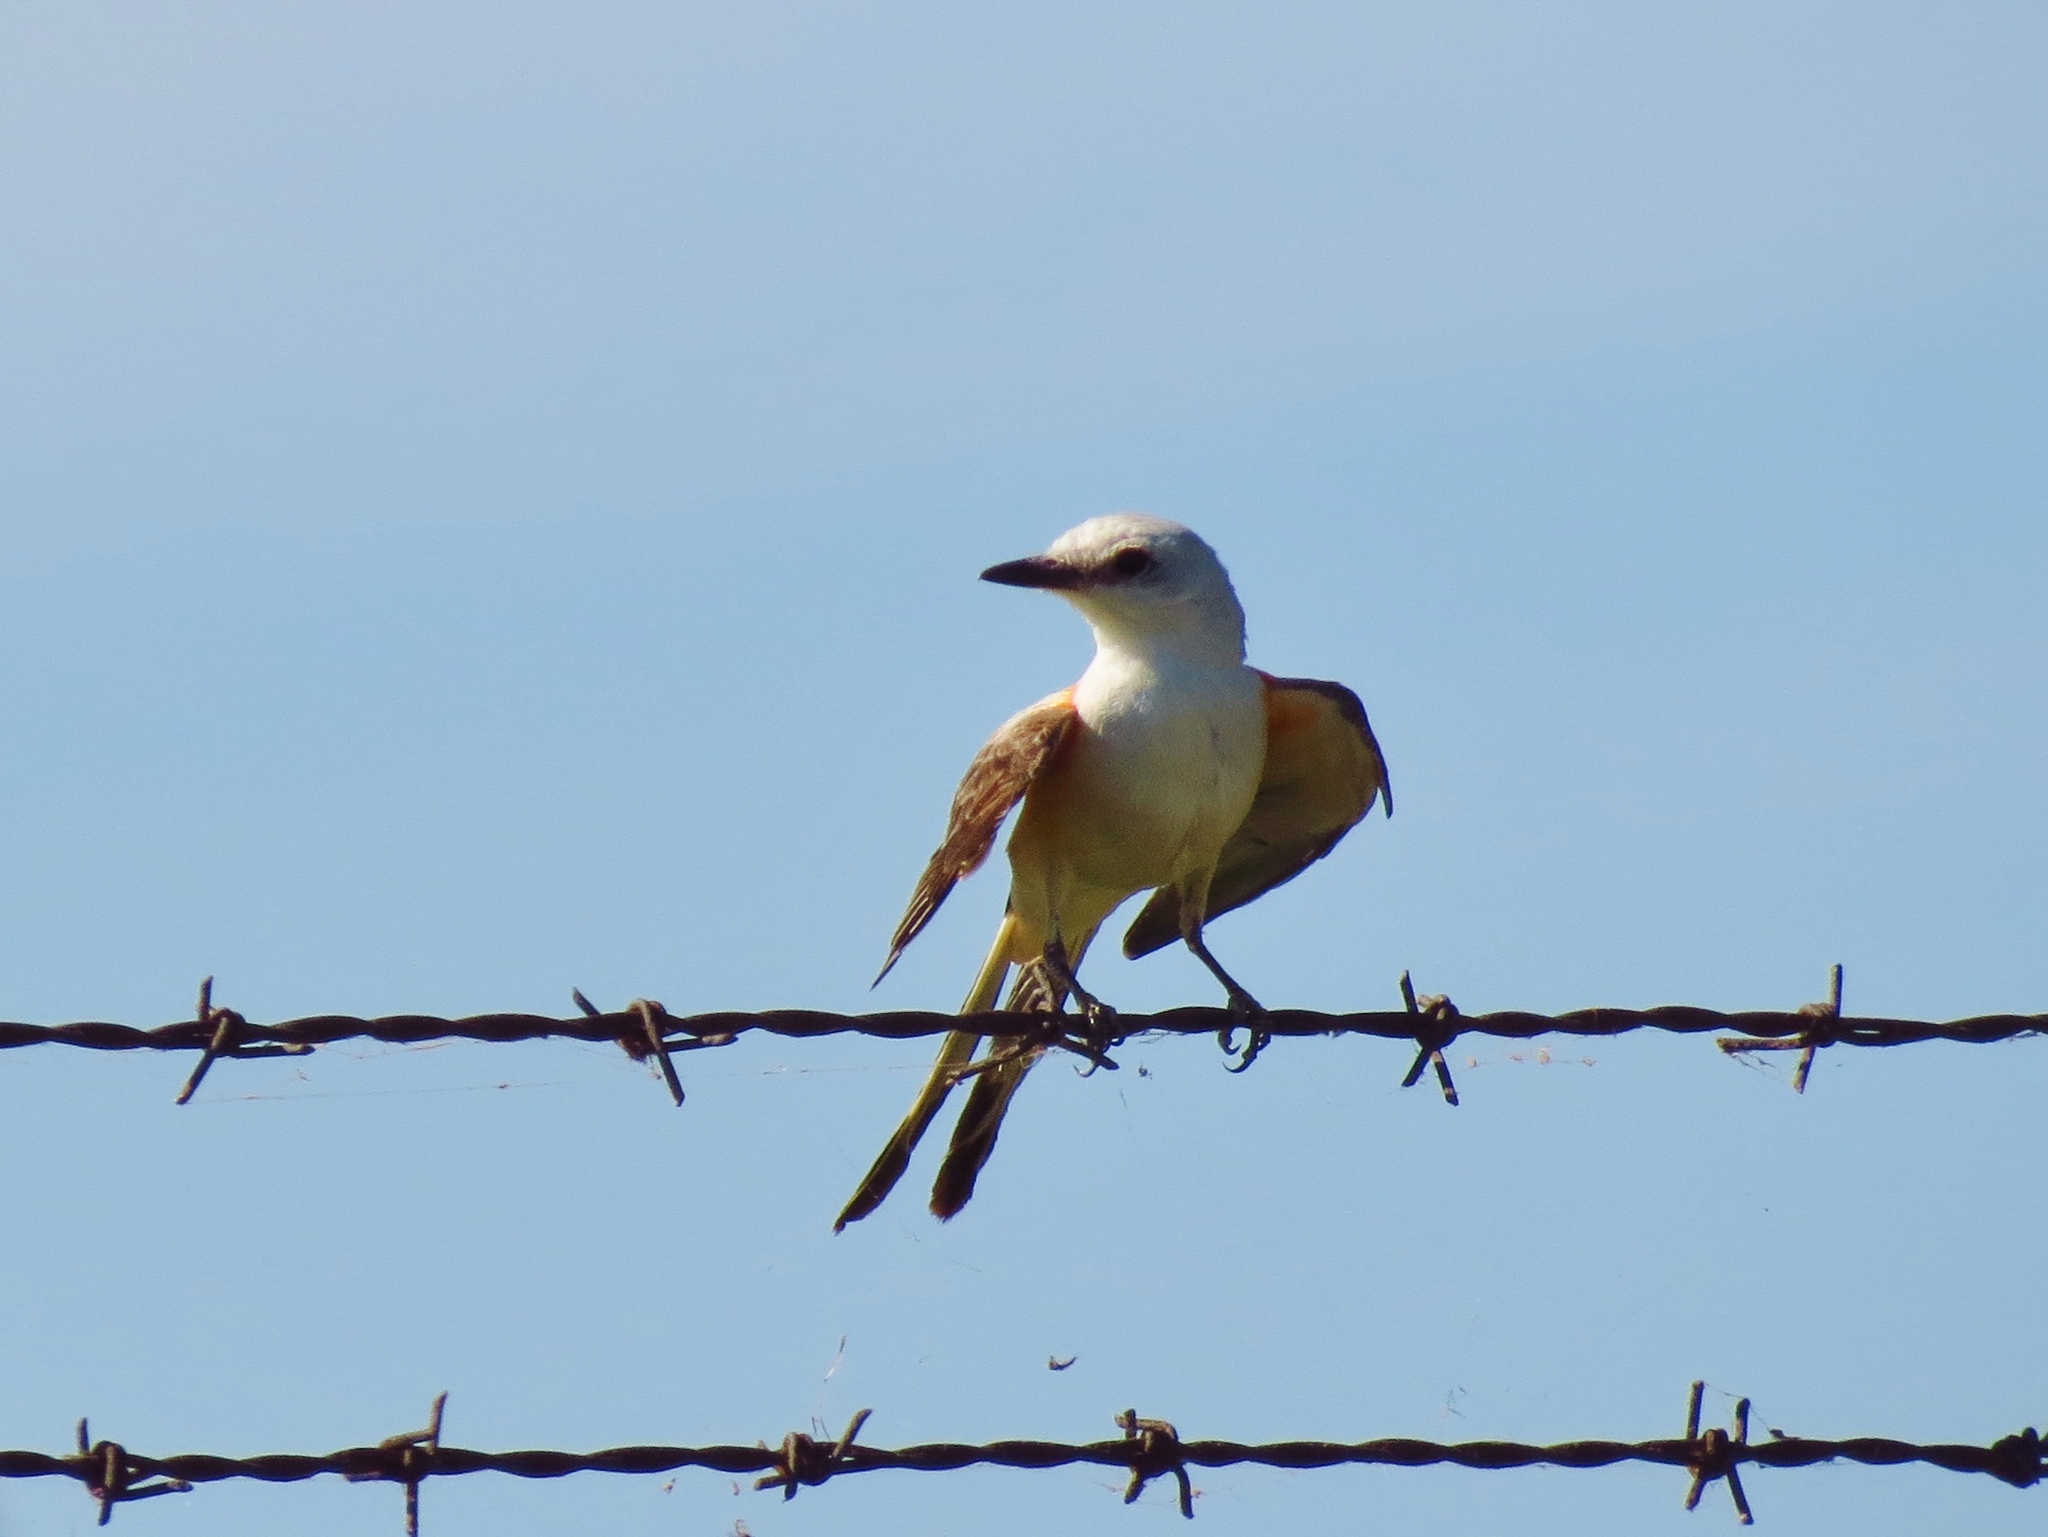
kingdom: Animalia
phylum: Chordata
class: Aves
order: Passeriformes
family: Tyrannidae
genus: Tyrannus
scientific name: Tyrannus forficatus
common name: Scissor-tailed flycatcher
